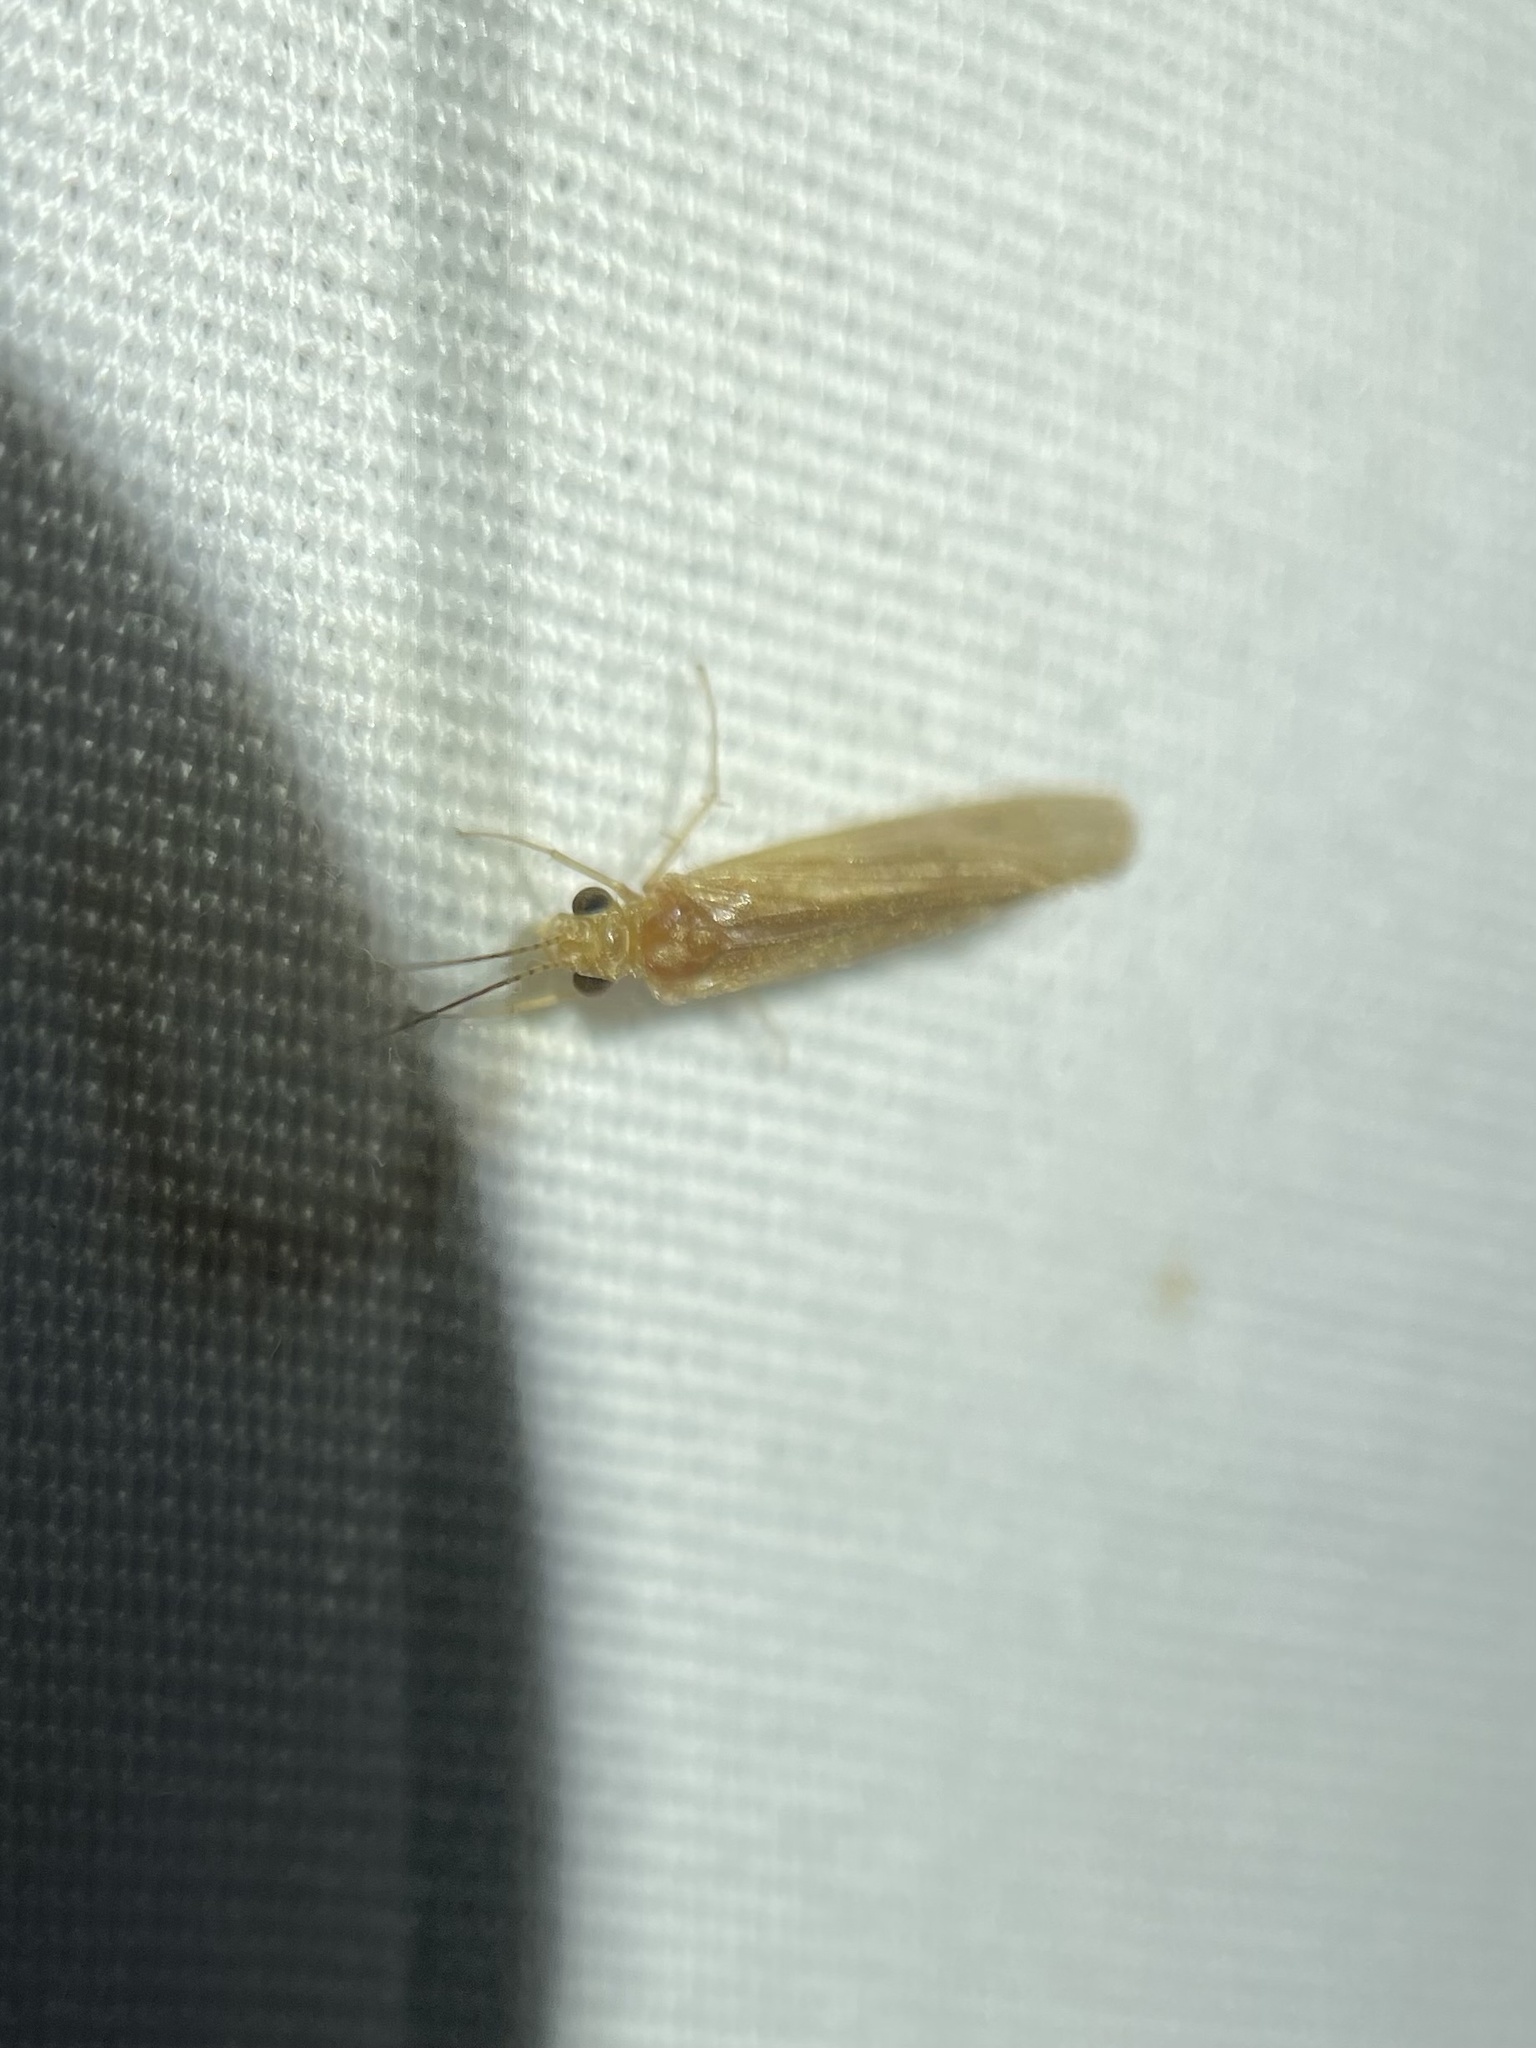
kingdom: Animalia
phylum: Arthropoda
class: Insecta
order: Trichoptera
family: Hydropsychidae
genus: Potamyia
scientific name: Potamyia flava
